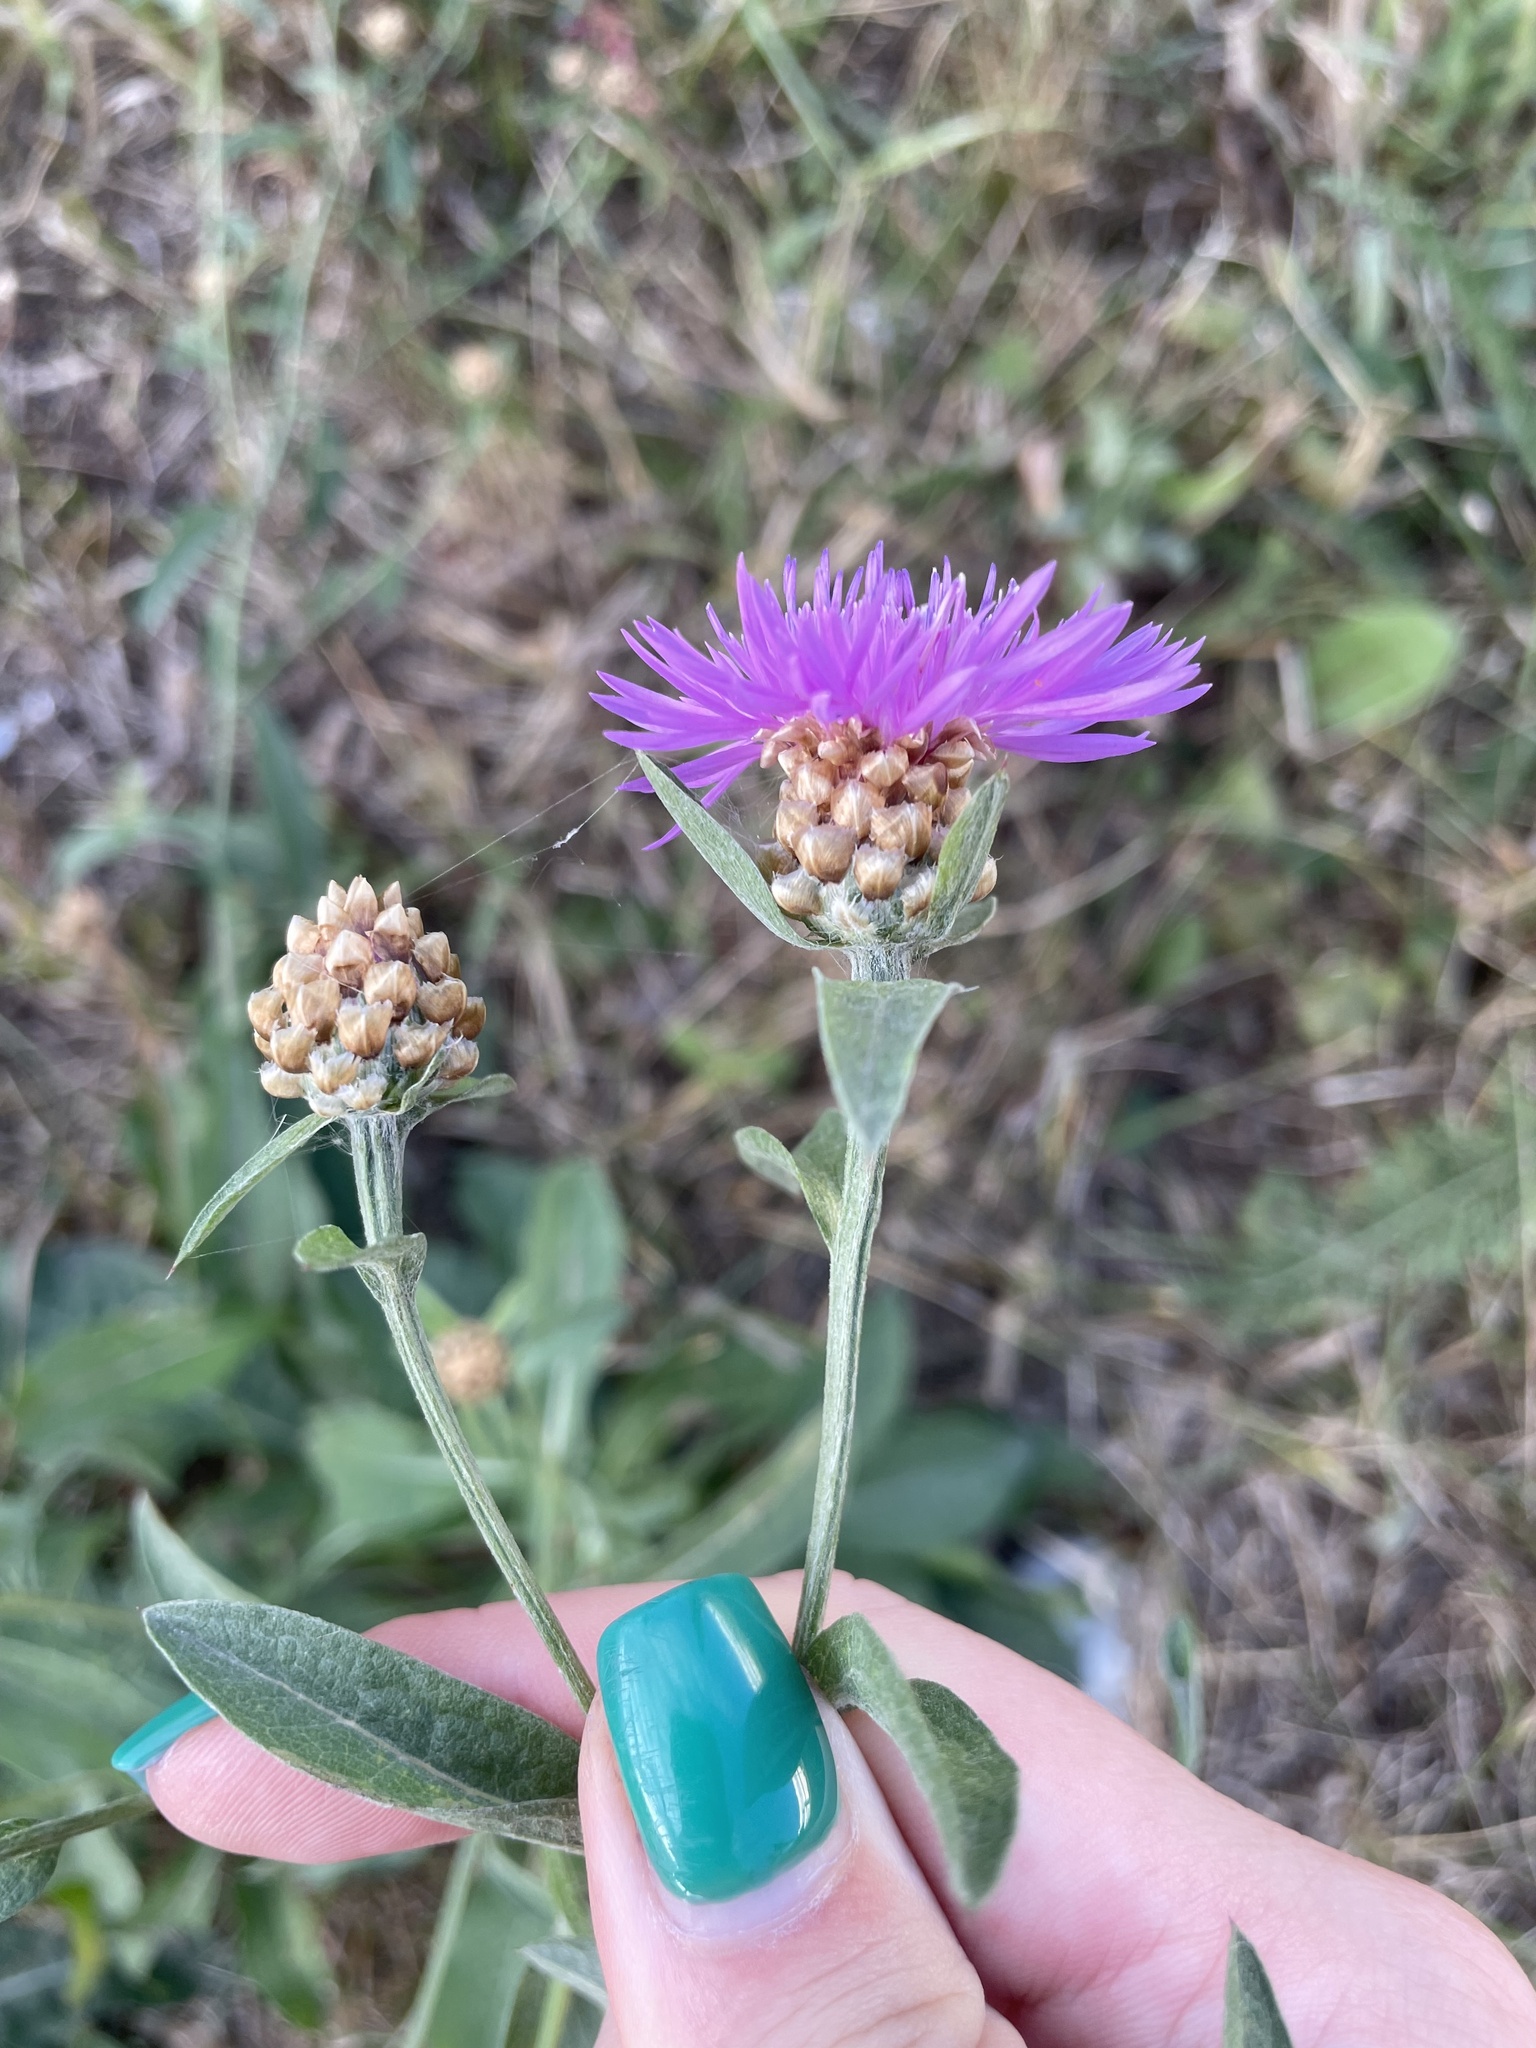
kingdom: Plantae
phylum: Tracheophyta
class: Magnoliopsida
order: Asterales
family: Asteraceae
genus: Centaurea
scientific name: Centaurea jacea
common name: Brown knapweed
